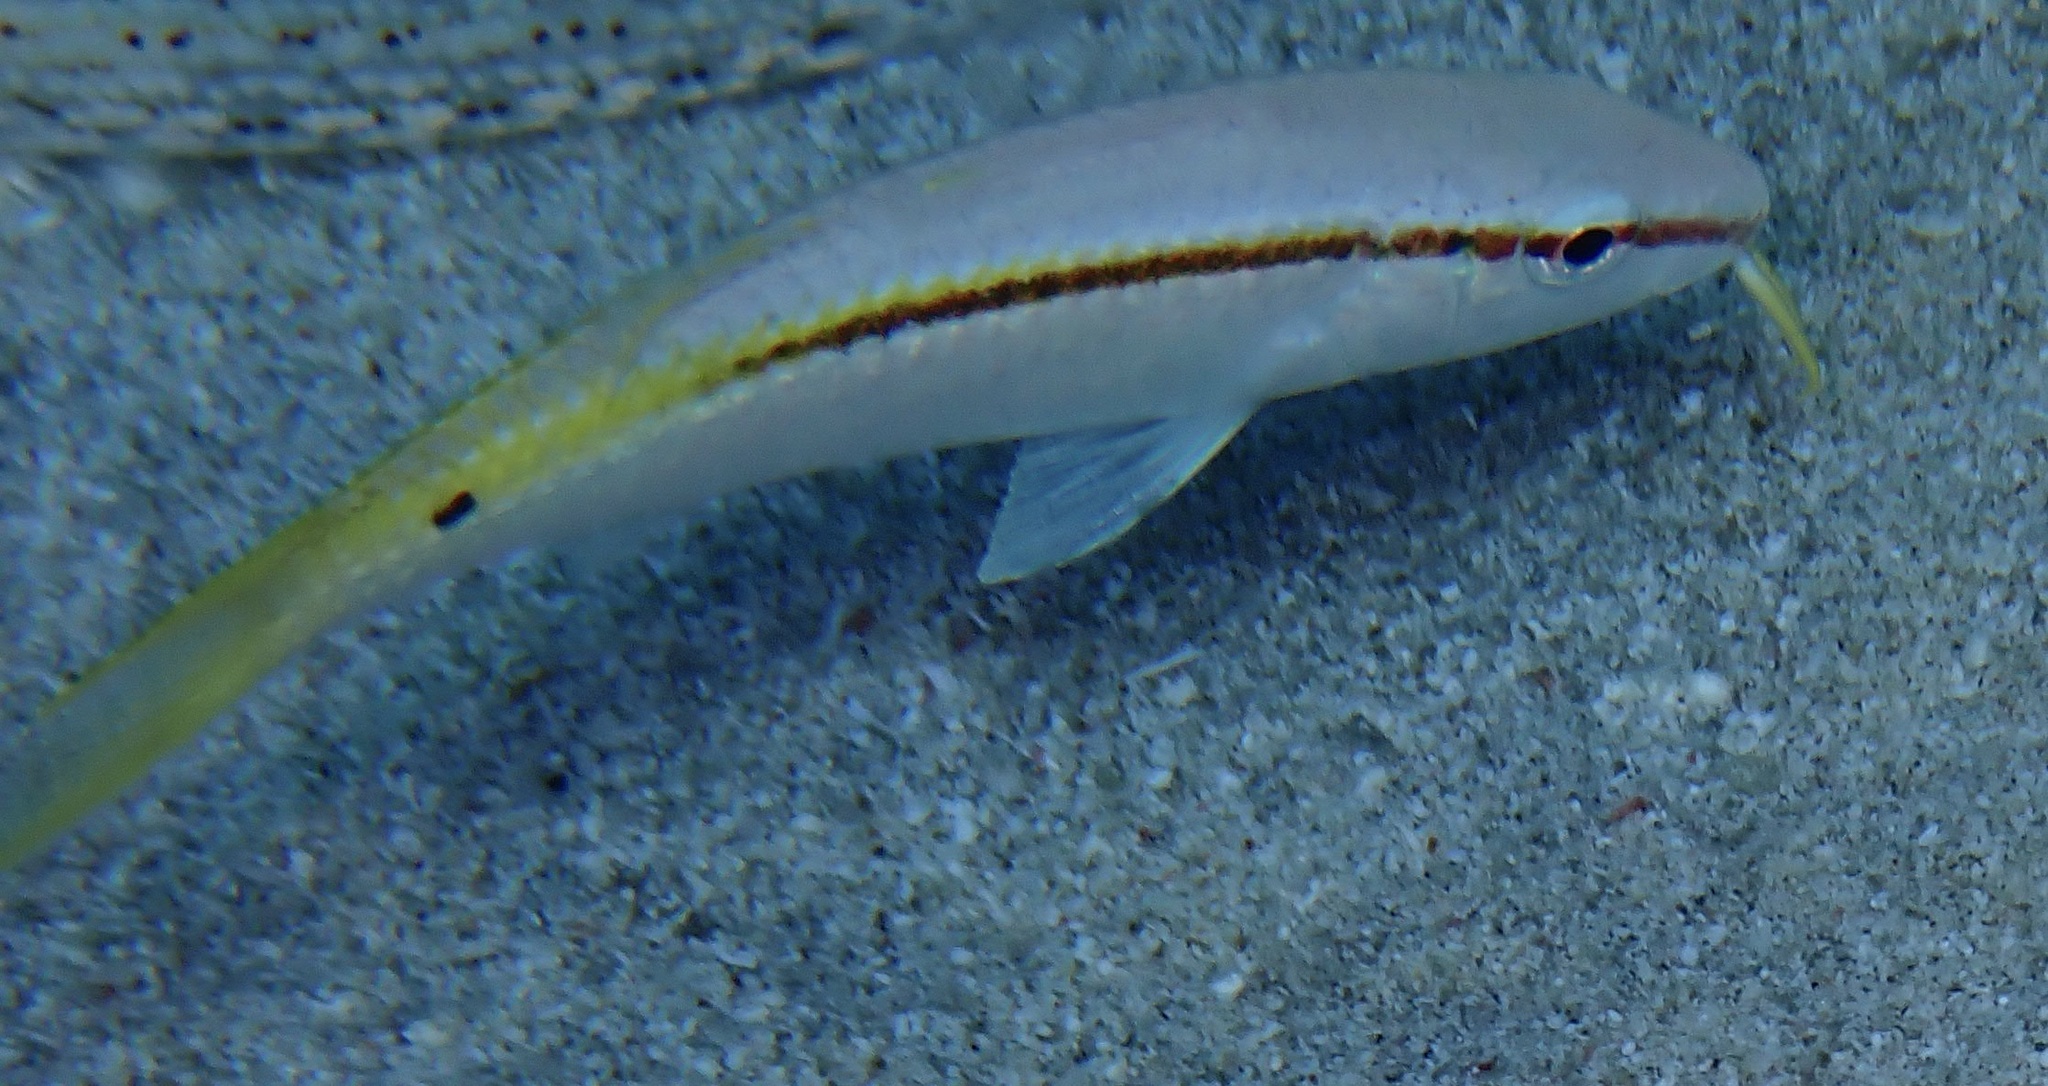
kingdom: Animalia
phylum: Chordata
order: Perciformes
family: Mullidae
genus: Parupeneus
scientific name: Parupeneus forsskali
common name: Red sea goatfish
